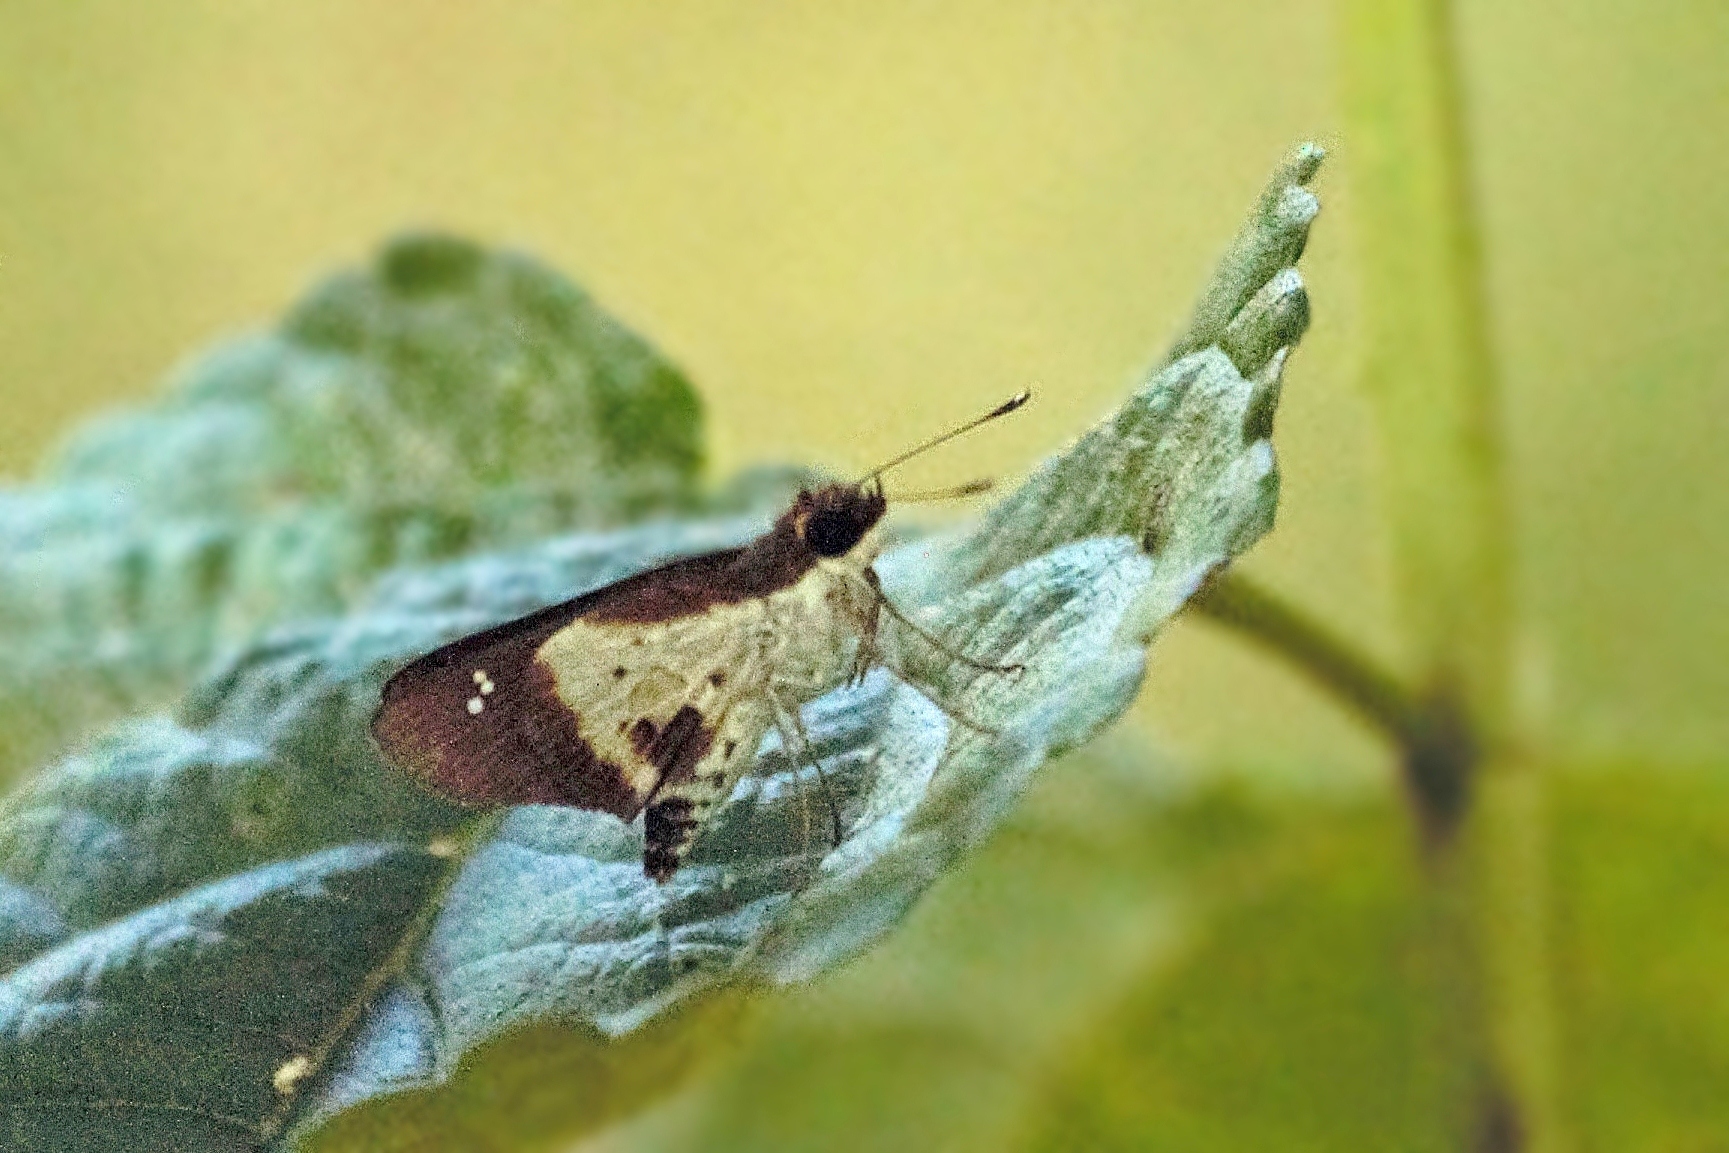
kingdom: Animalia
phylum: Arthropoda
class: Insecta
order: Lepidoptera
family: Hesperiidae
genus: Andronymus
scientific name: Andronymus caesar
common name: Common dart
